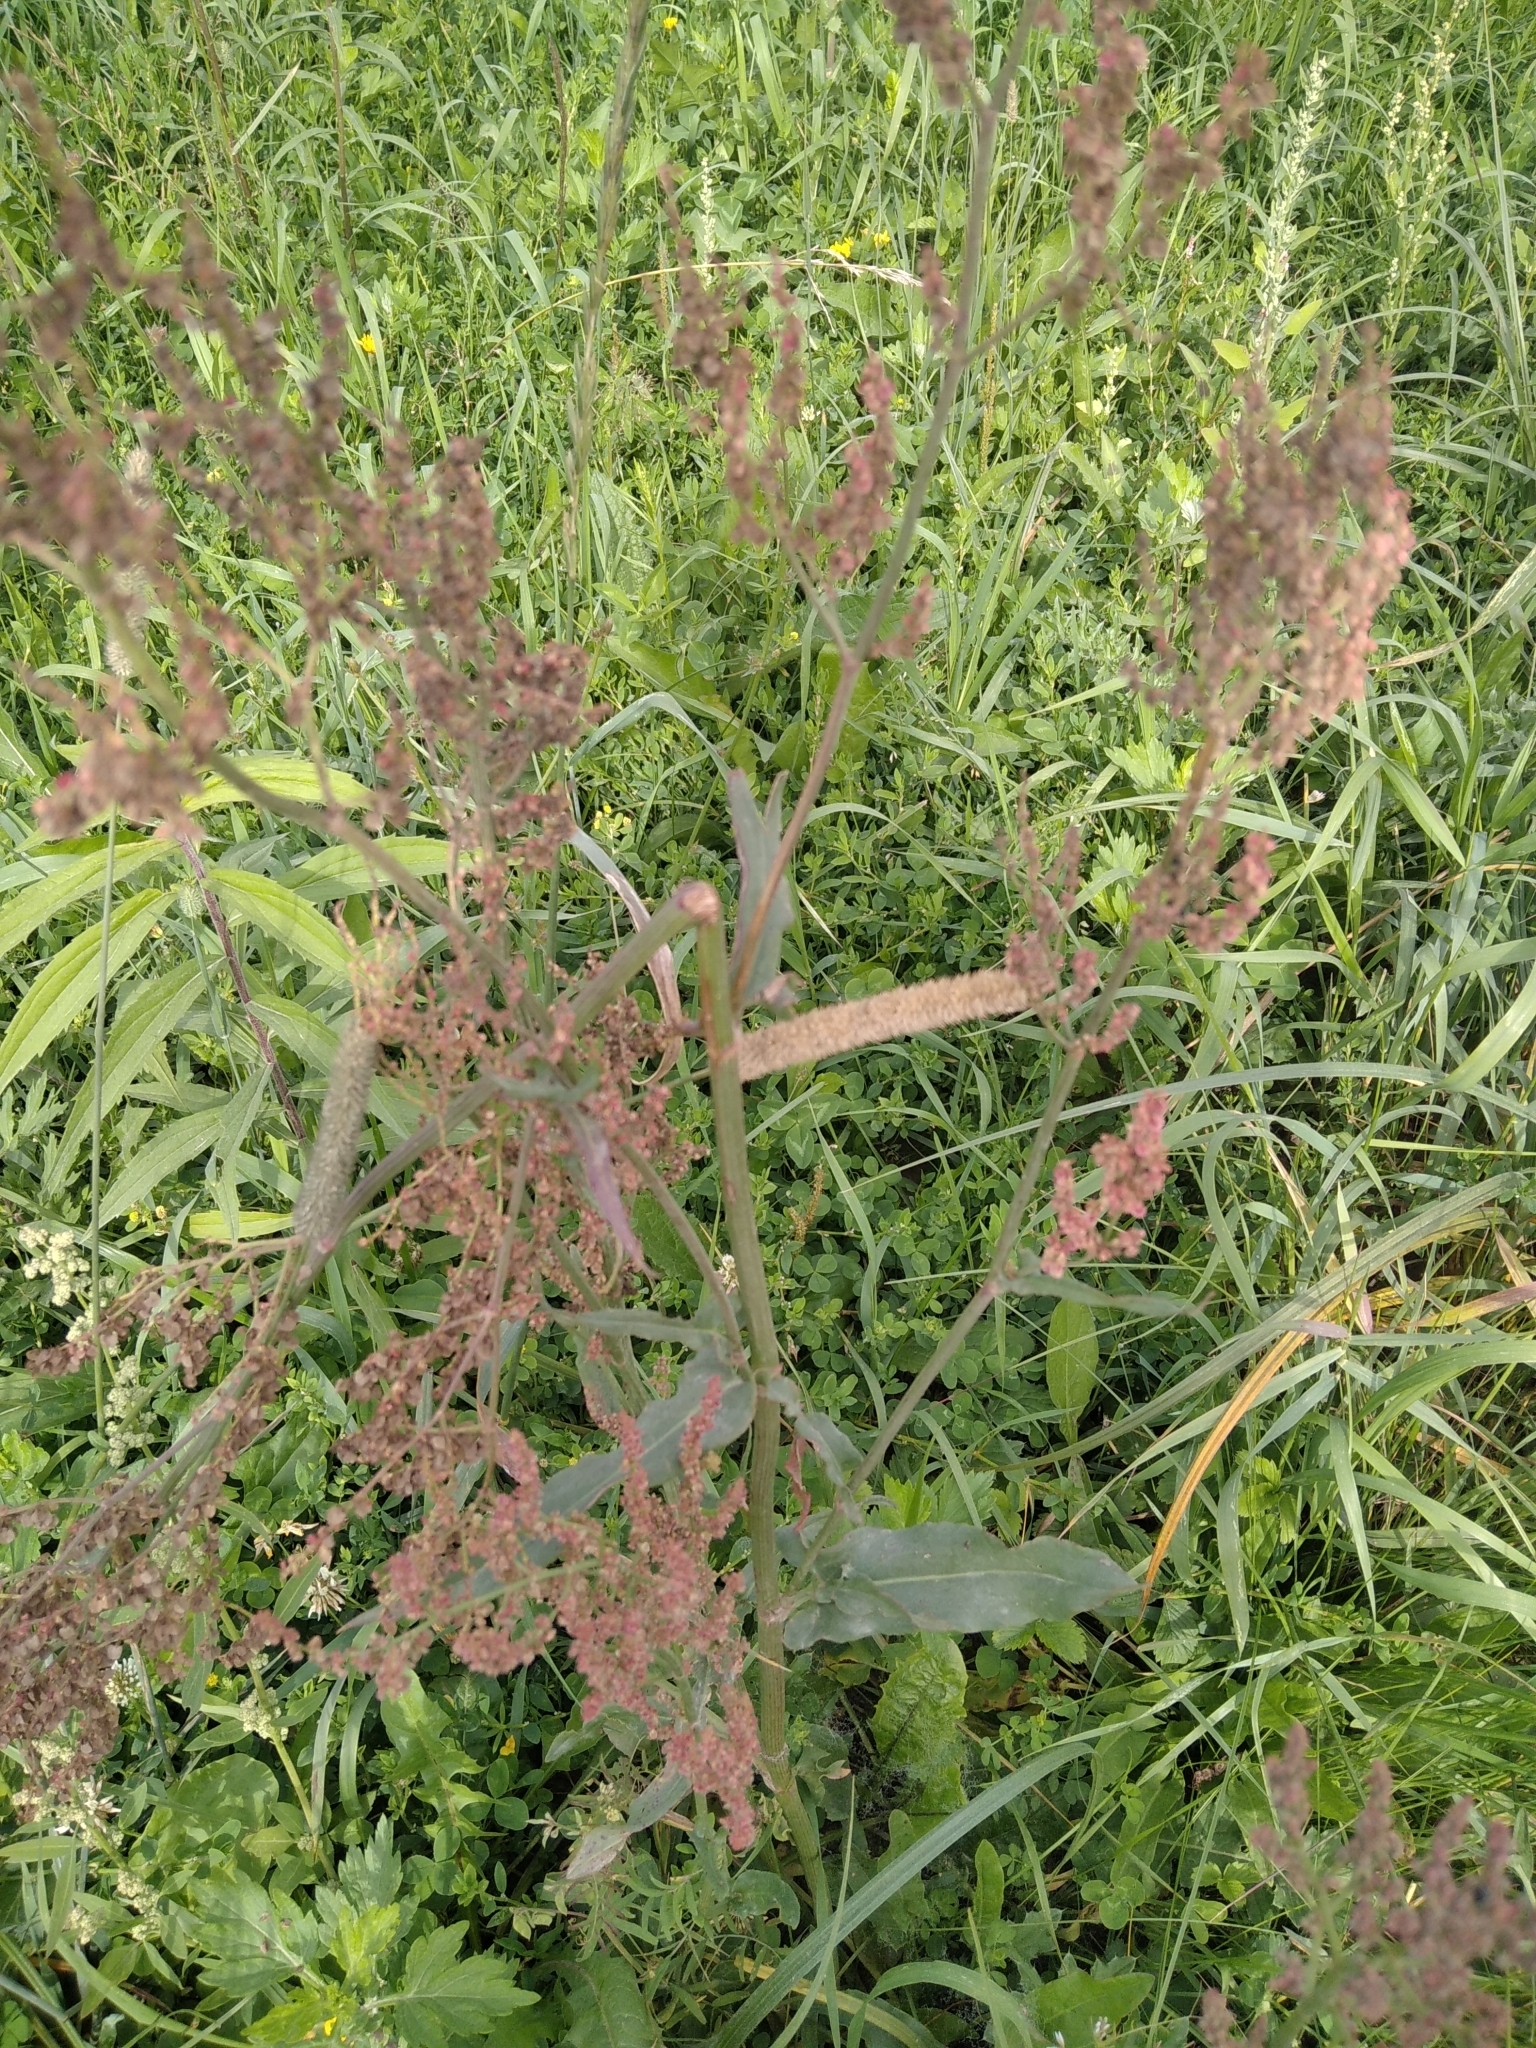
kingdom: Plantae
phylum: Tracheophyta
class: Magnoliopsida
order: Caryophyllales
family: Polygonaceae
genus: Rumex
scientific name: Rumex thyrsiflorus
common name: Garden sorrel
